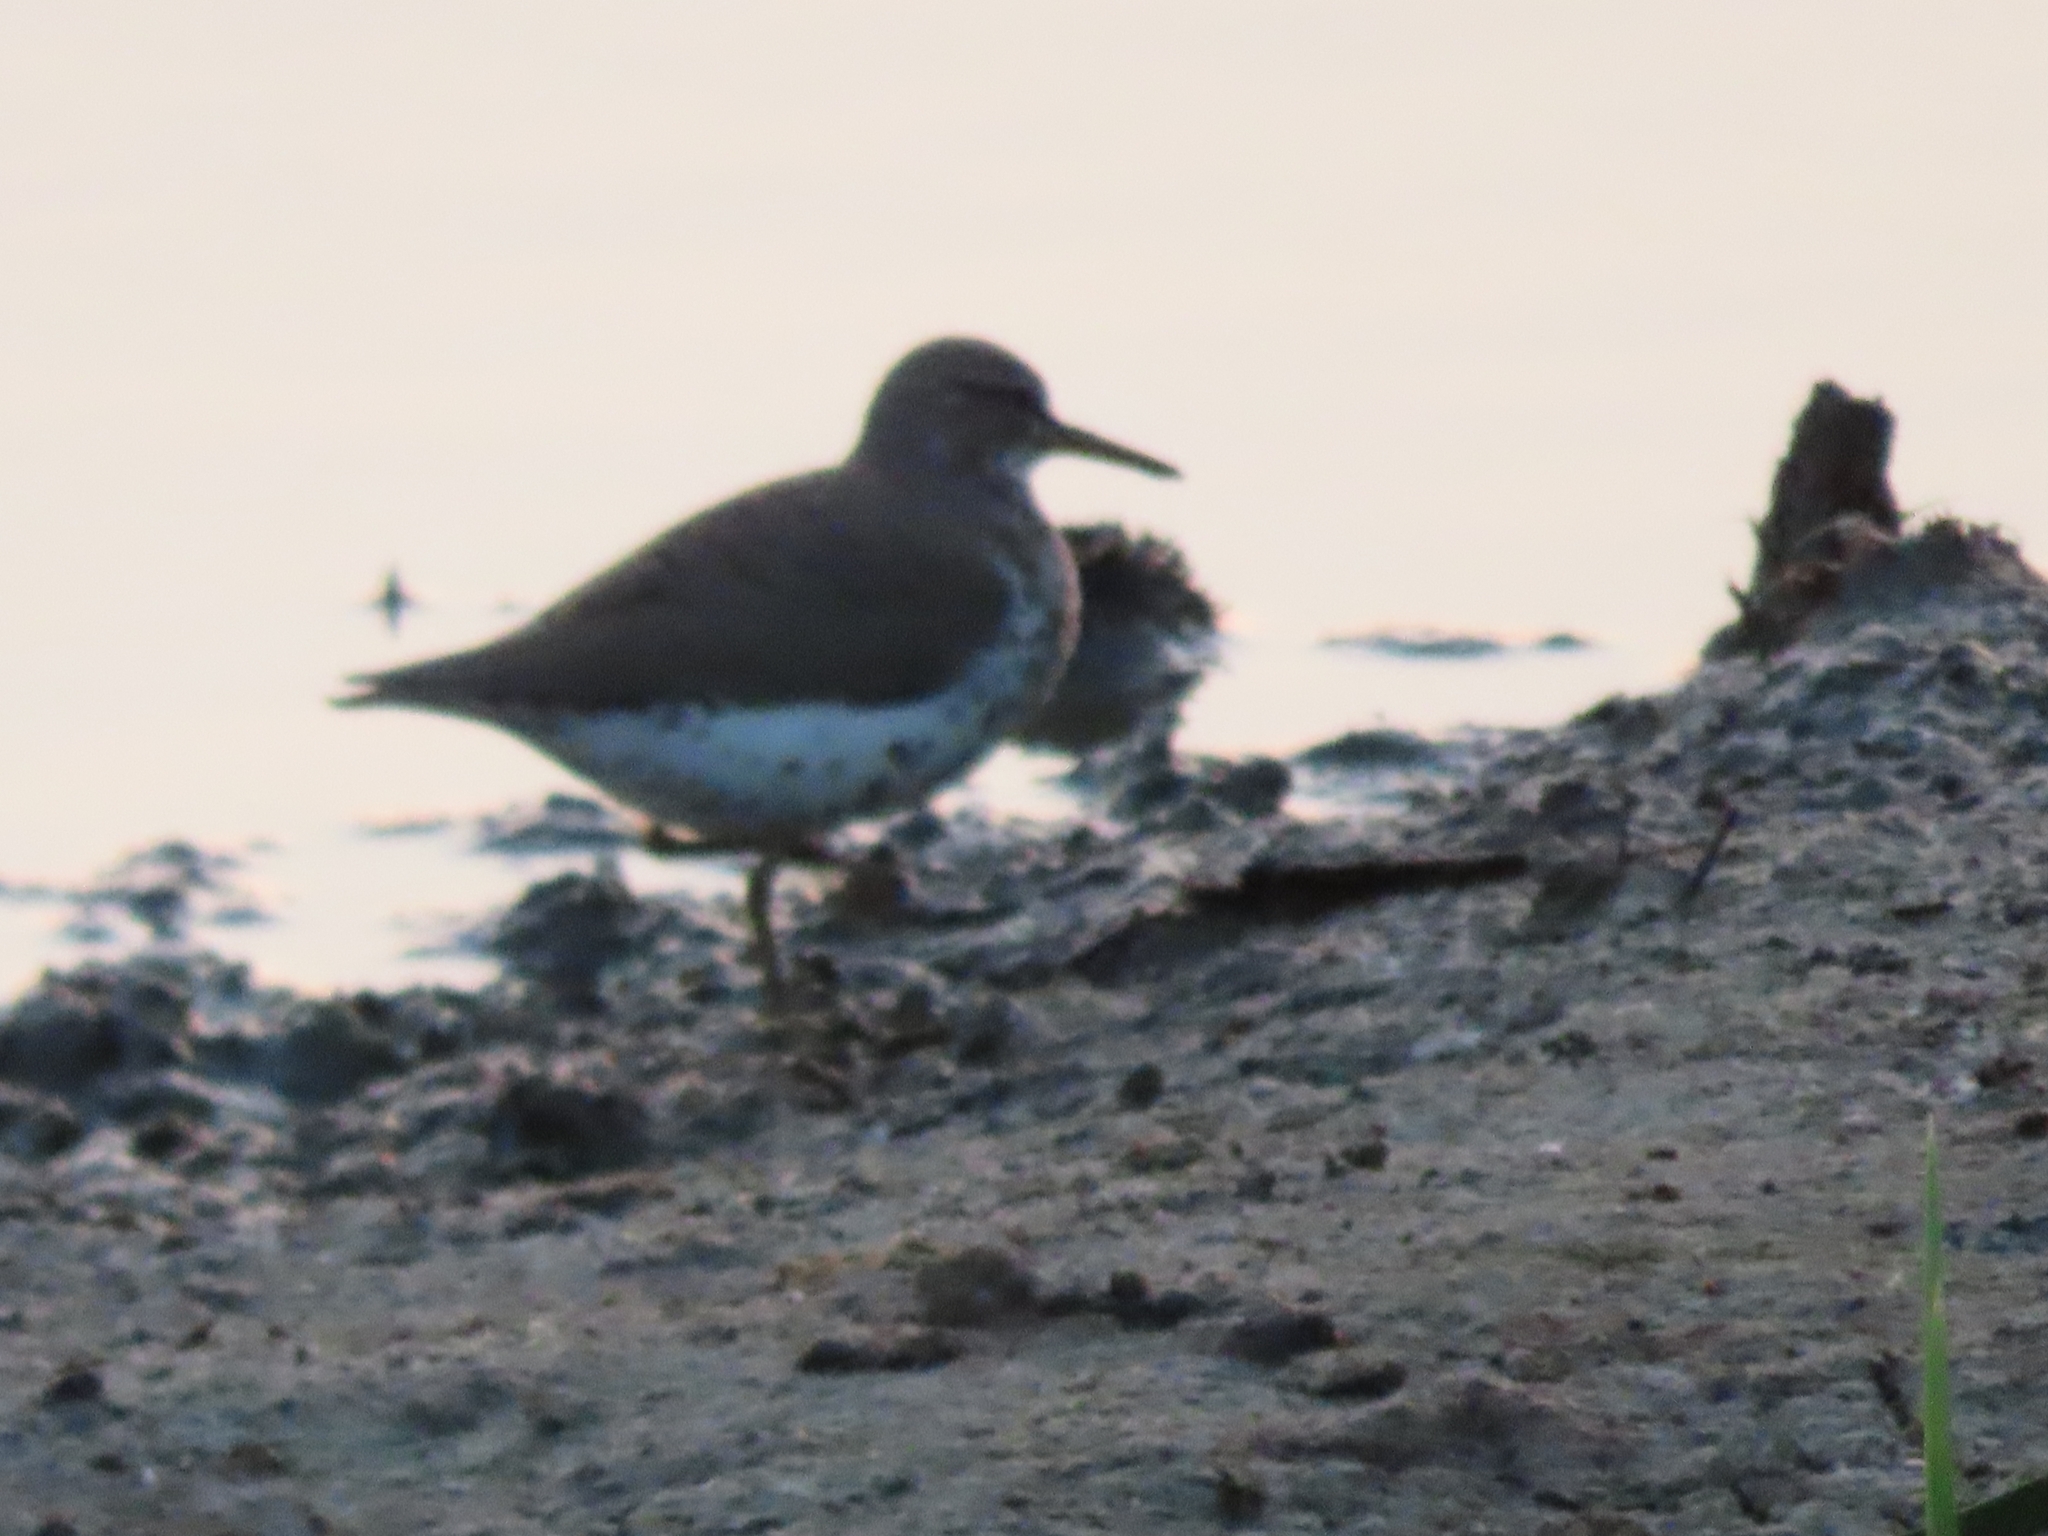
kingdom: Animalia
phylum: Chordata
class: Aves
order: Charadriiformes
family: Scolopacidae
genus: Actitis
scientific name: Actitis macularius
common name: Spotted sandpiper
